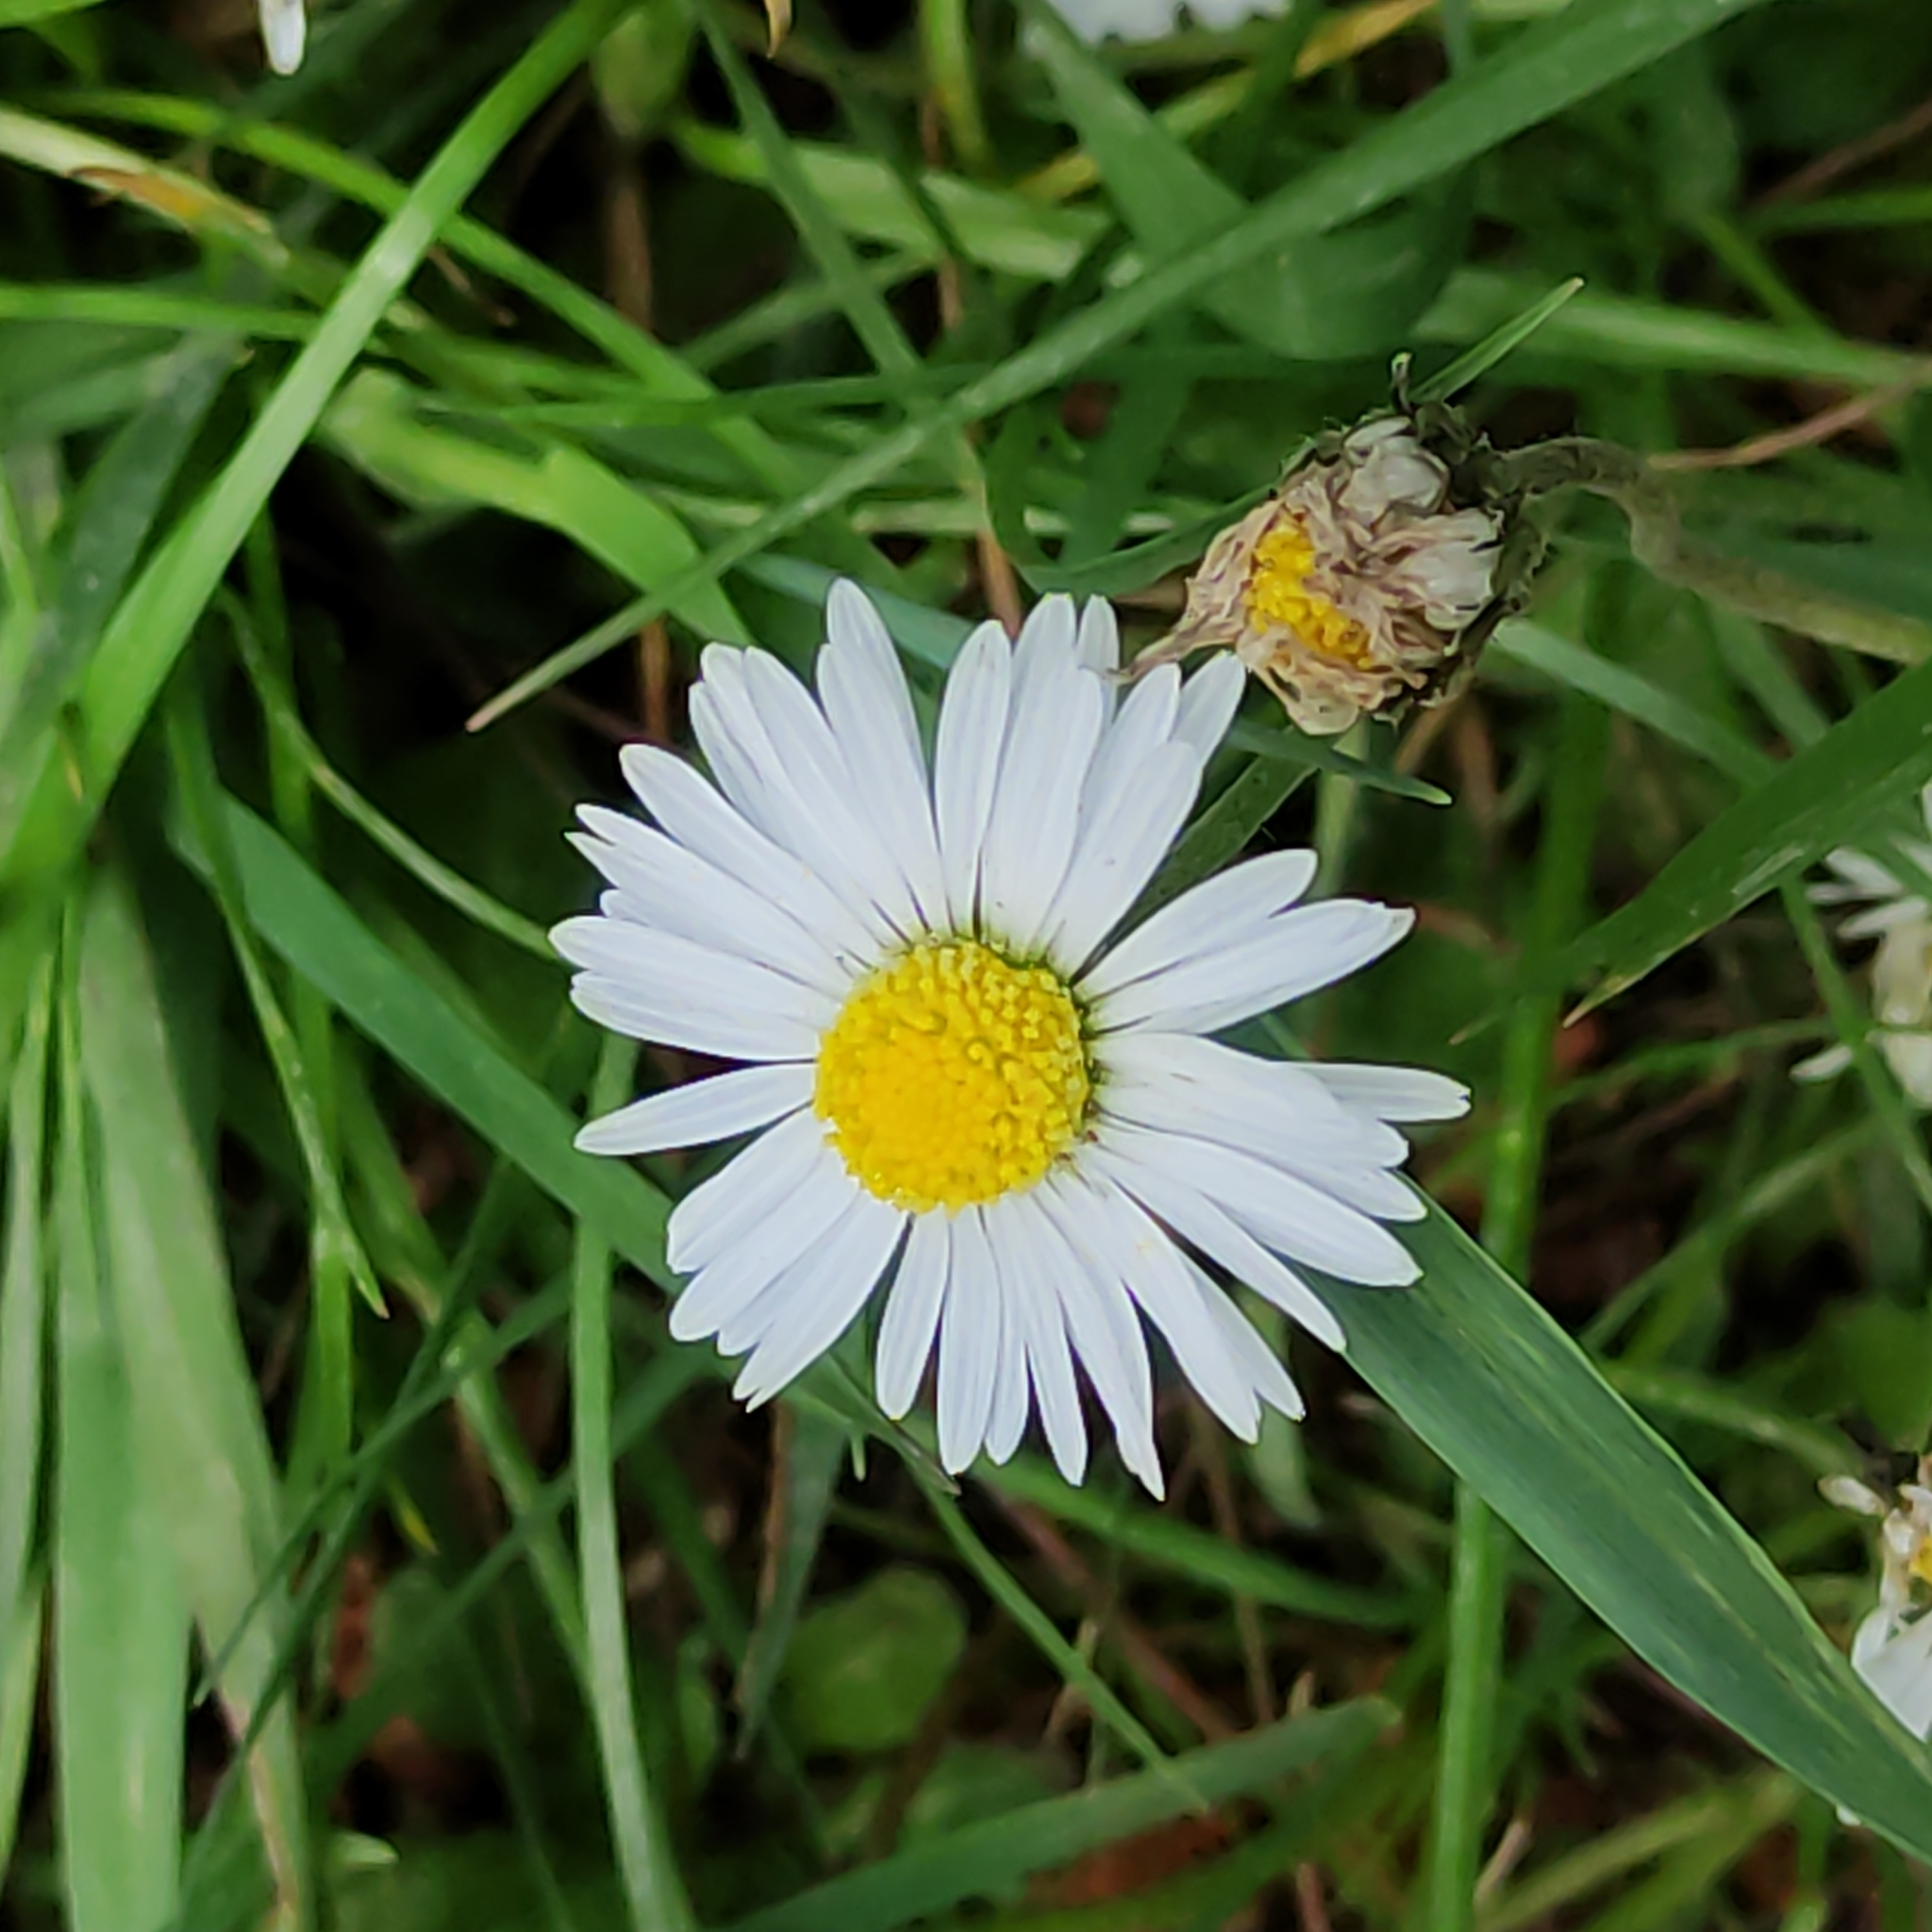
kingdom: Plantae
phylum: Tracheophyta
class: Magnoliopsida
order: Asterales
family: Asteraceae
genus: Bellis
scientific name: Bellis perennis
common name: Lawndaisy
